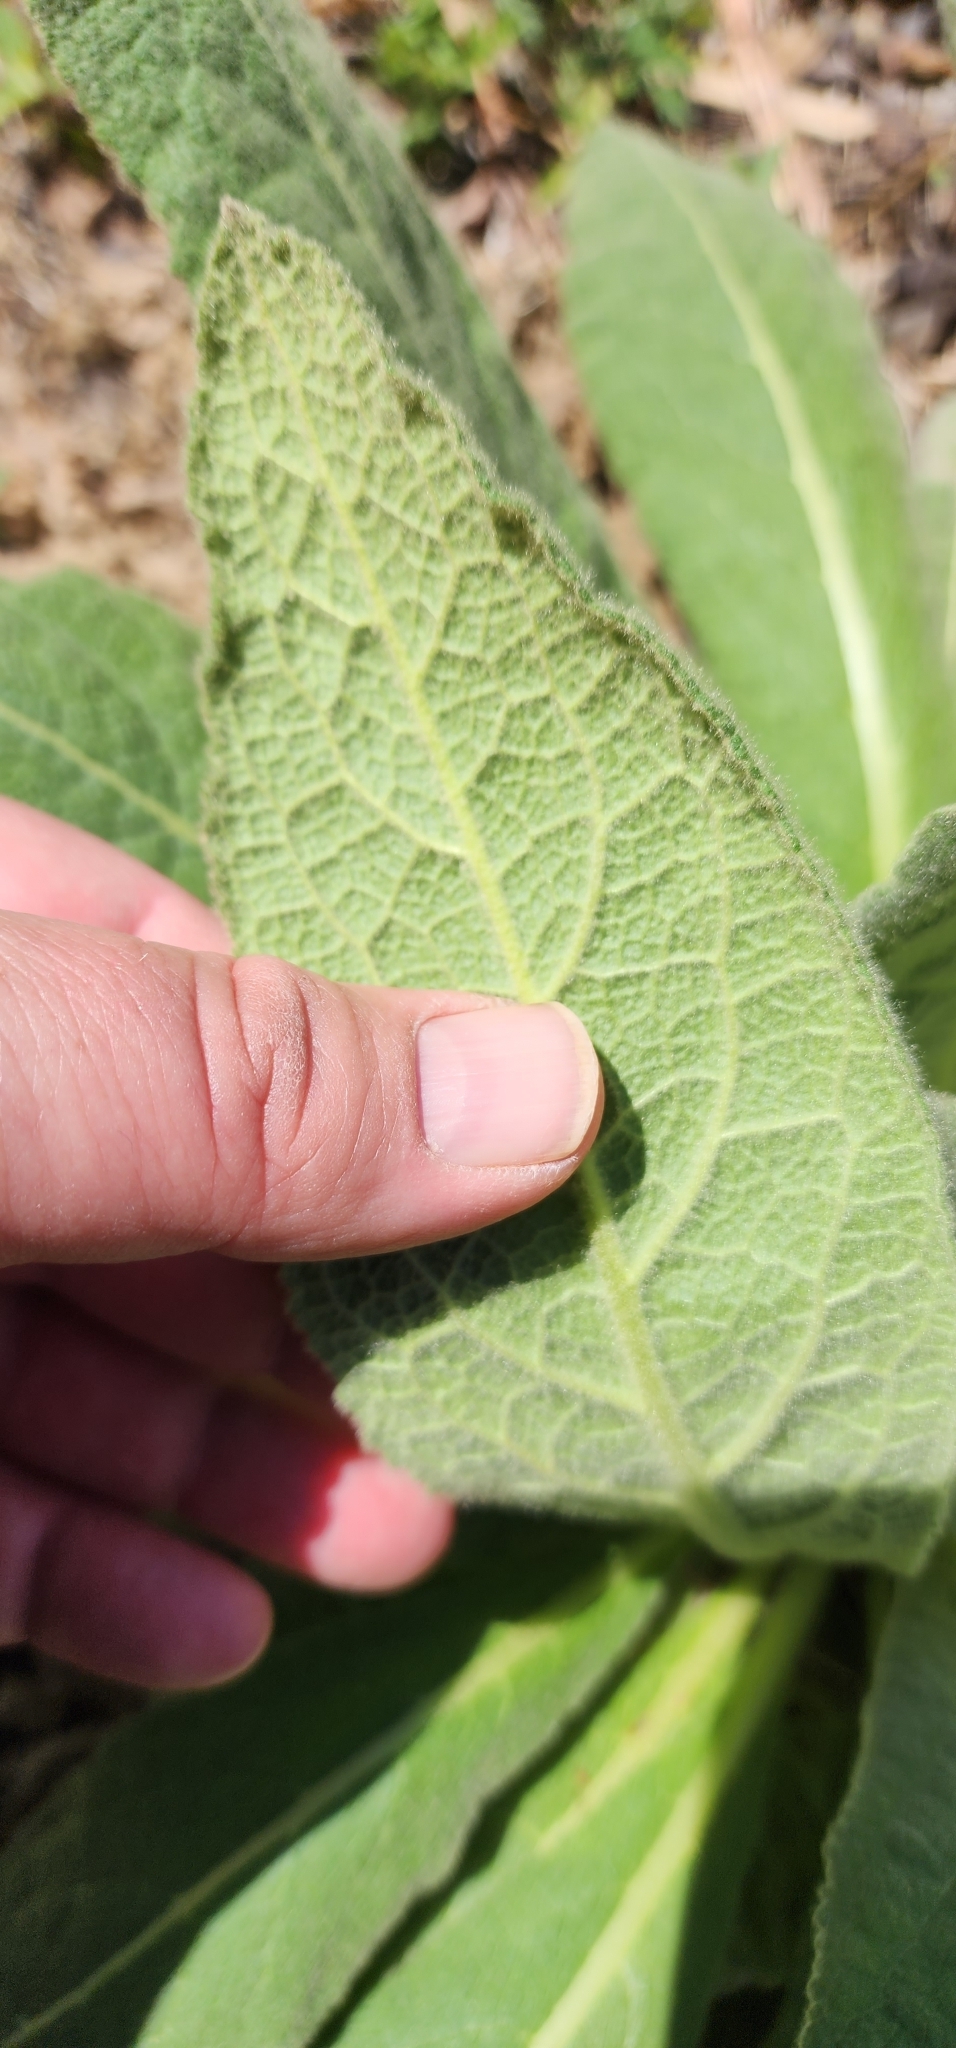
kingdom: Plantae
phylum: Tracheophyta
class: Magnoliopsida
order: Lamiales
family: Scrophulariaceae
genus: Verbascum
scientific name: Verbascum thapsus
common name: Common mullein
